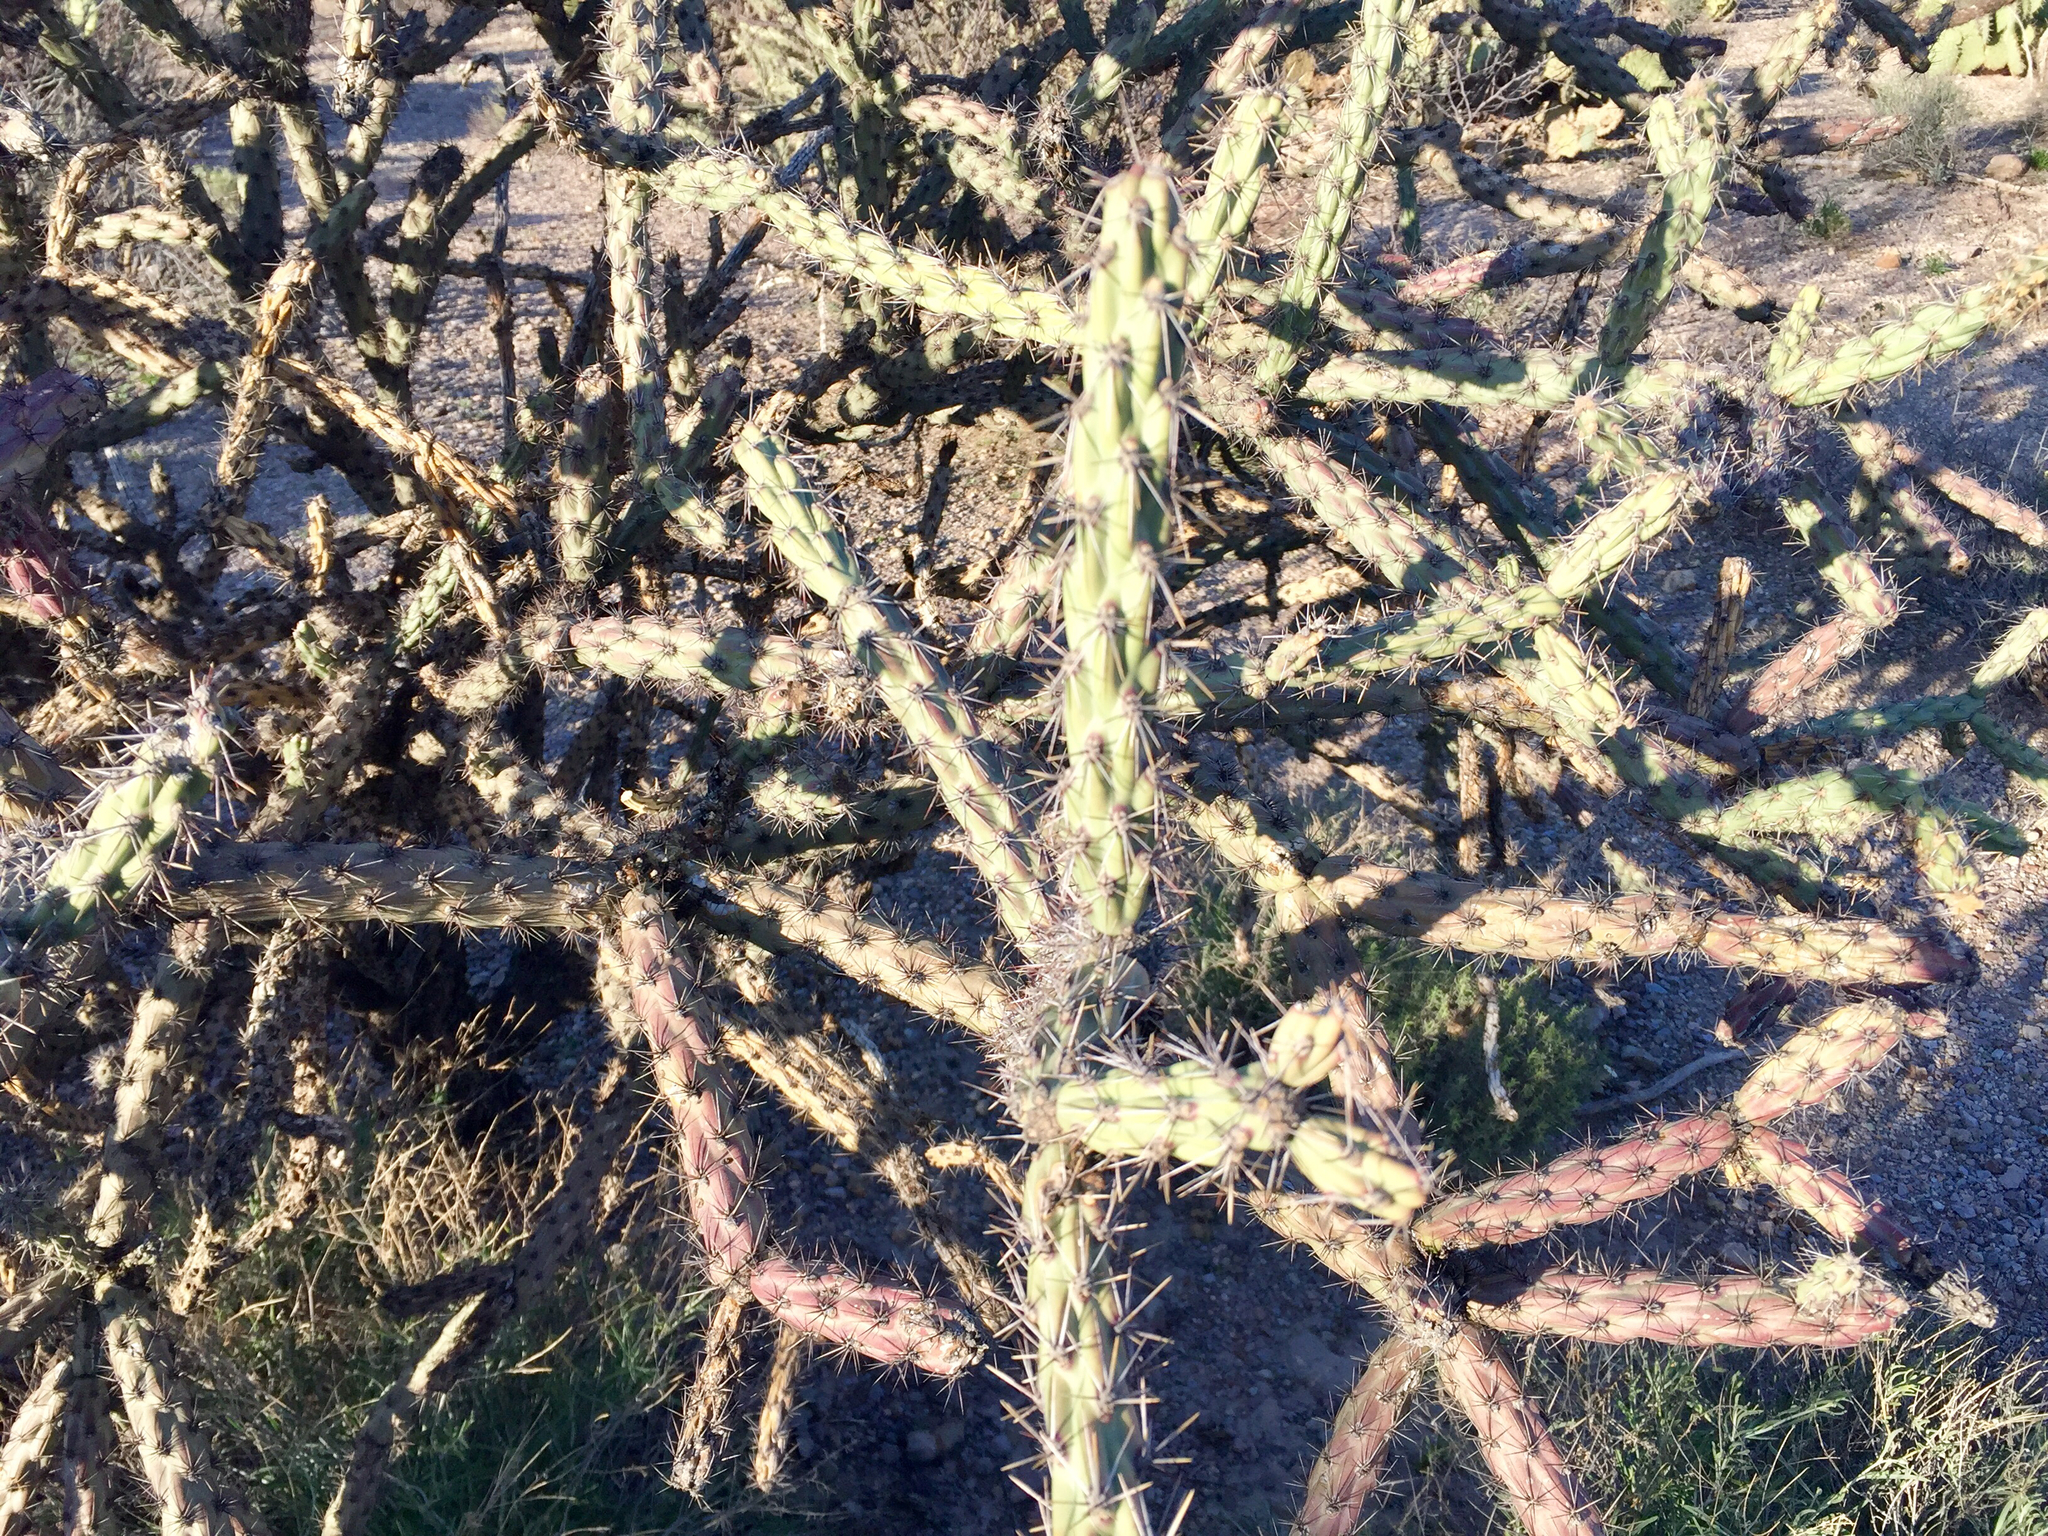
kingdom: Plantae
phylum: Tracheophyta
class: Magnoliopsida
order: Caryophyllales
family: Cactaceae
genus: Cylindropuntia
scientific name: Cylindropuntia thurberi
